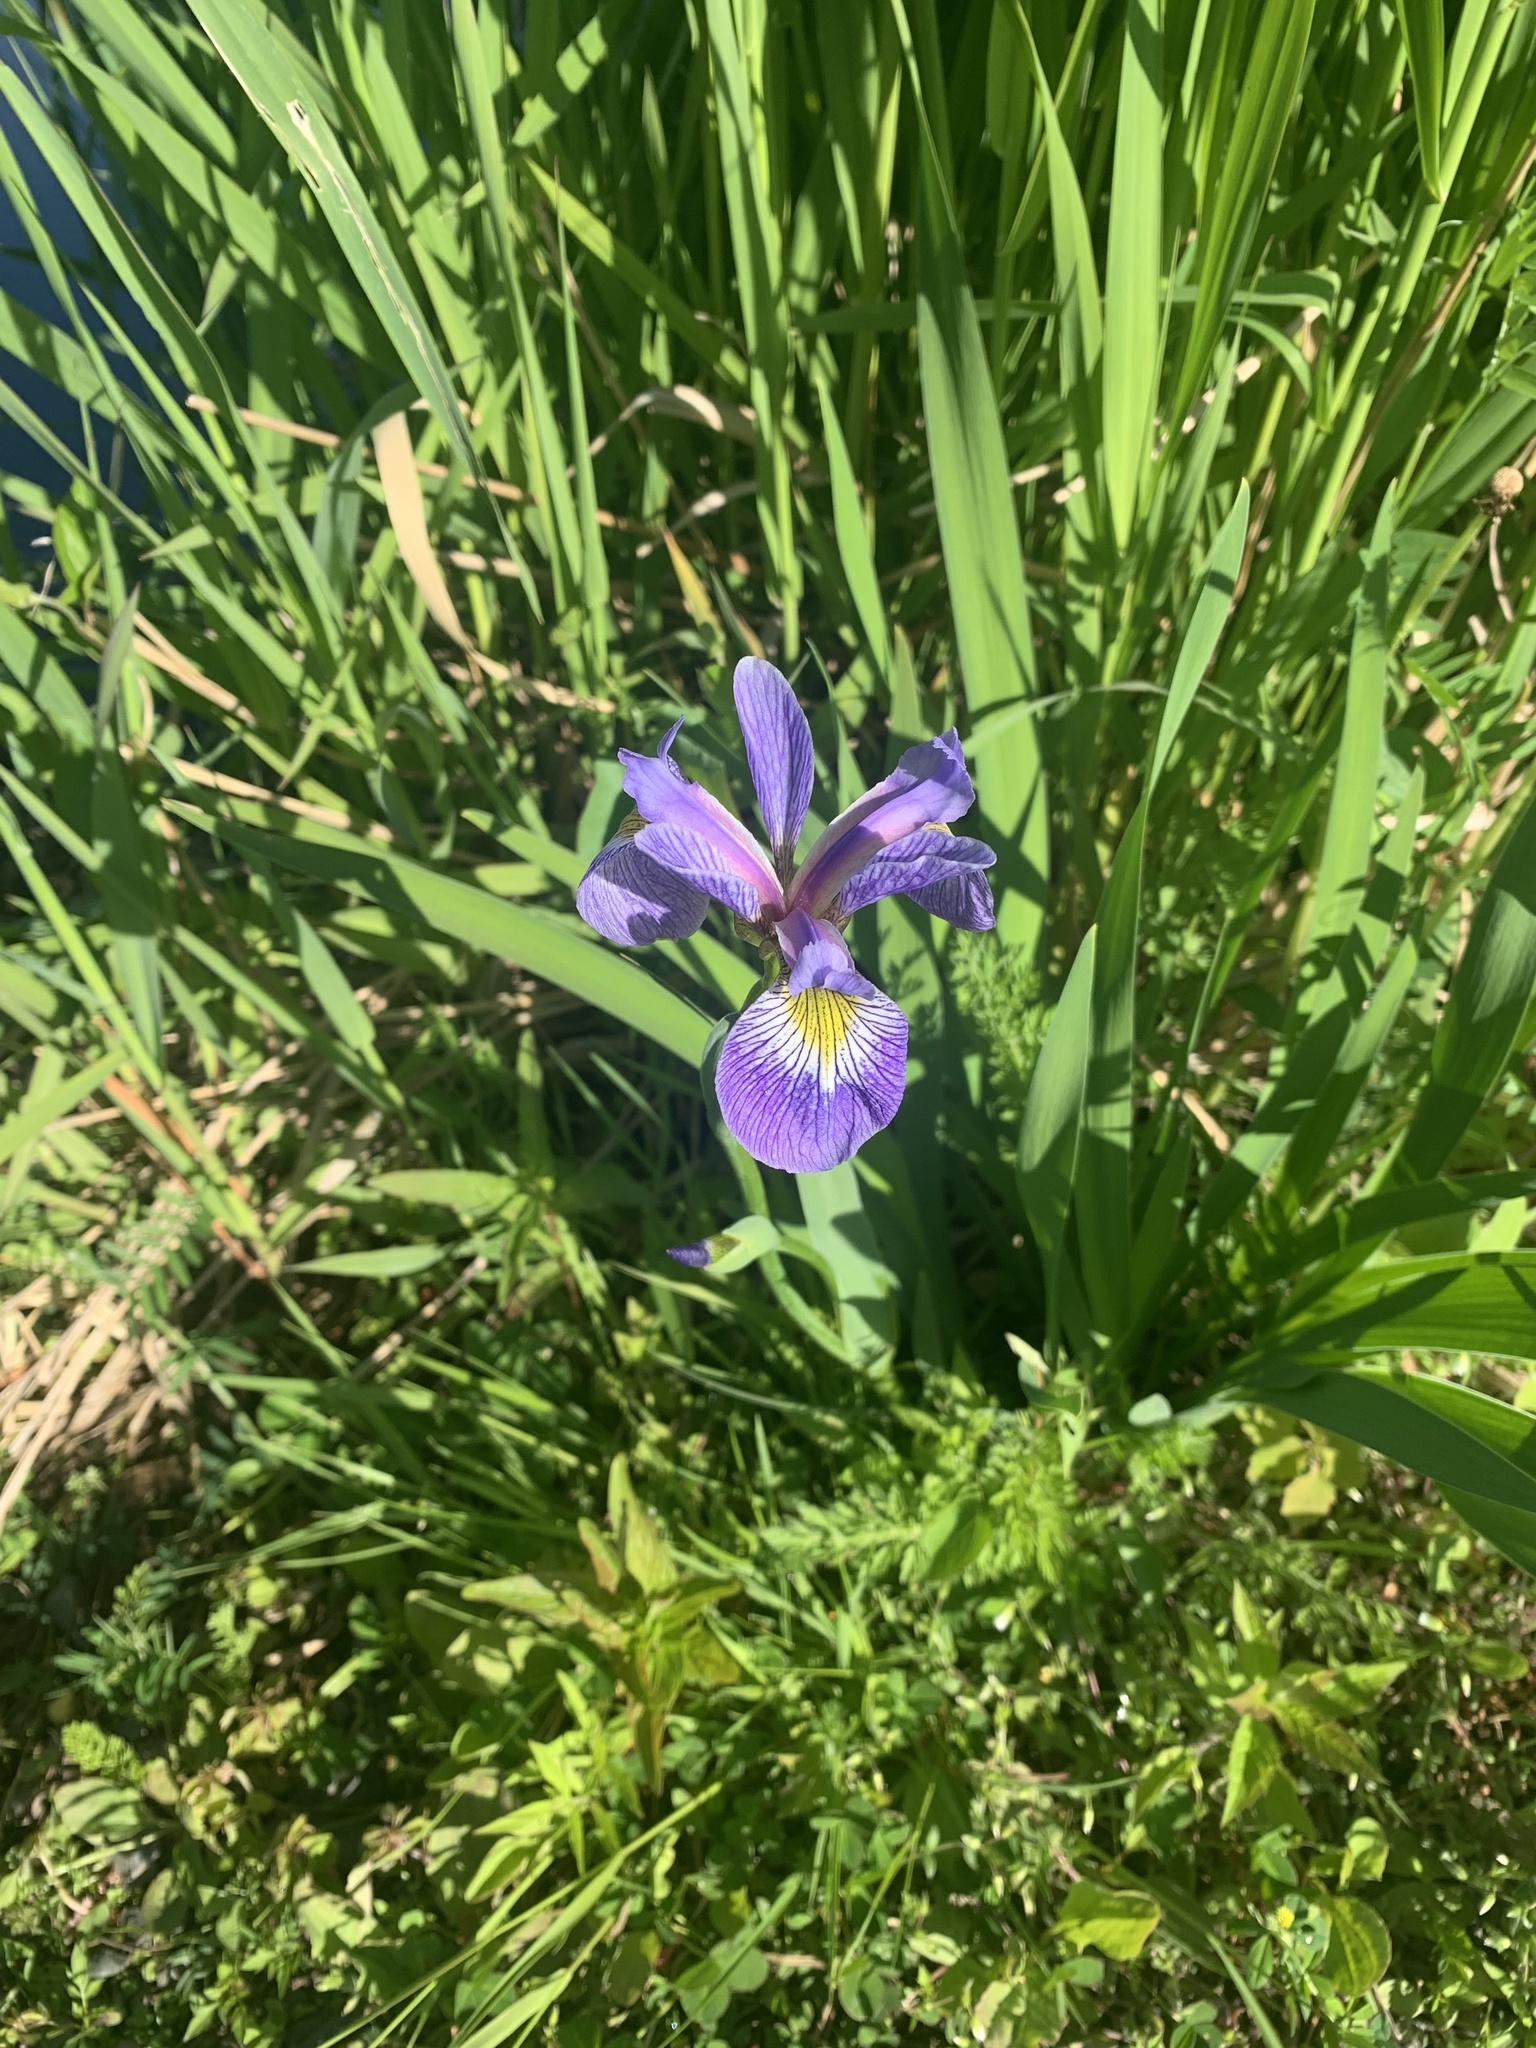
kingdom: Plantae
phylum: Tracheophyta
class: Liliopsida
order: Asparagales
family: Iridaceae
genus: Iris
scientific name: Iris versicolor
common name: Purple iris
